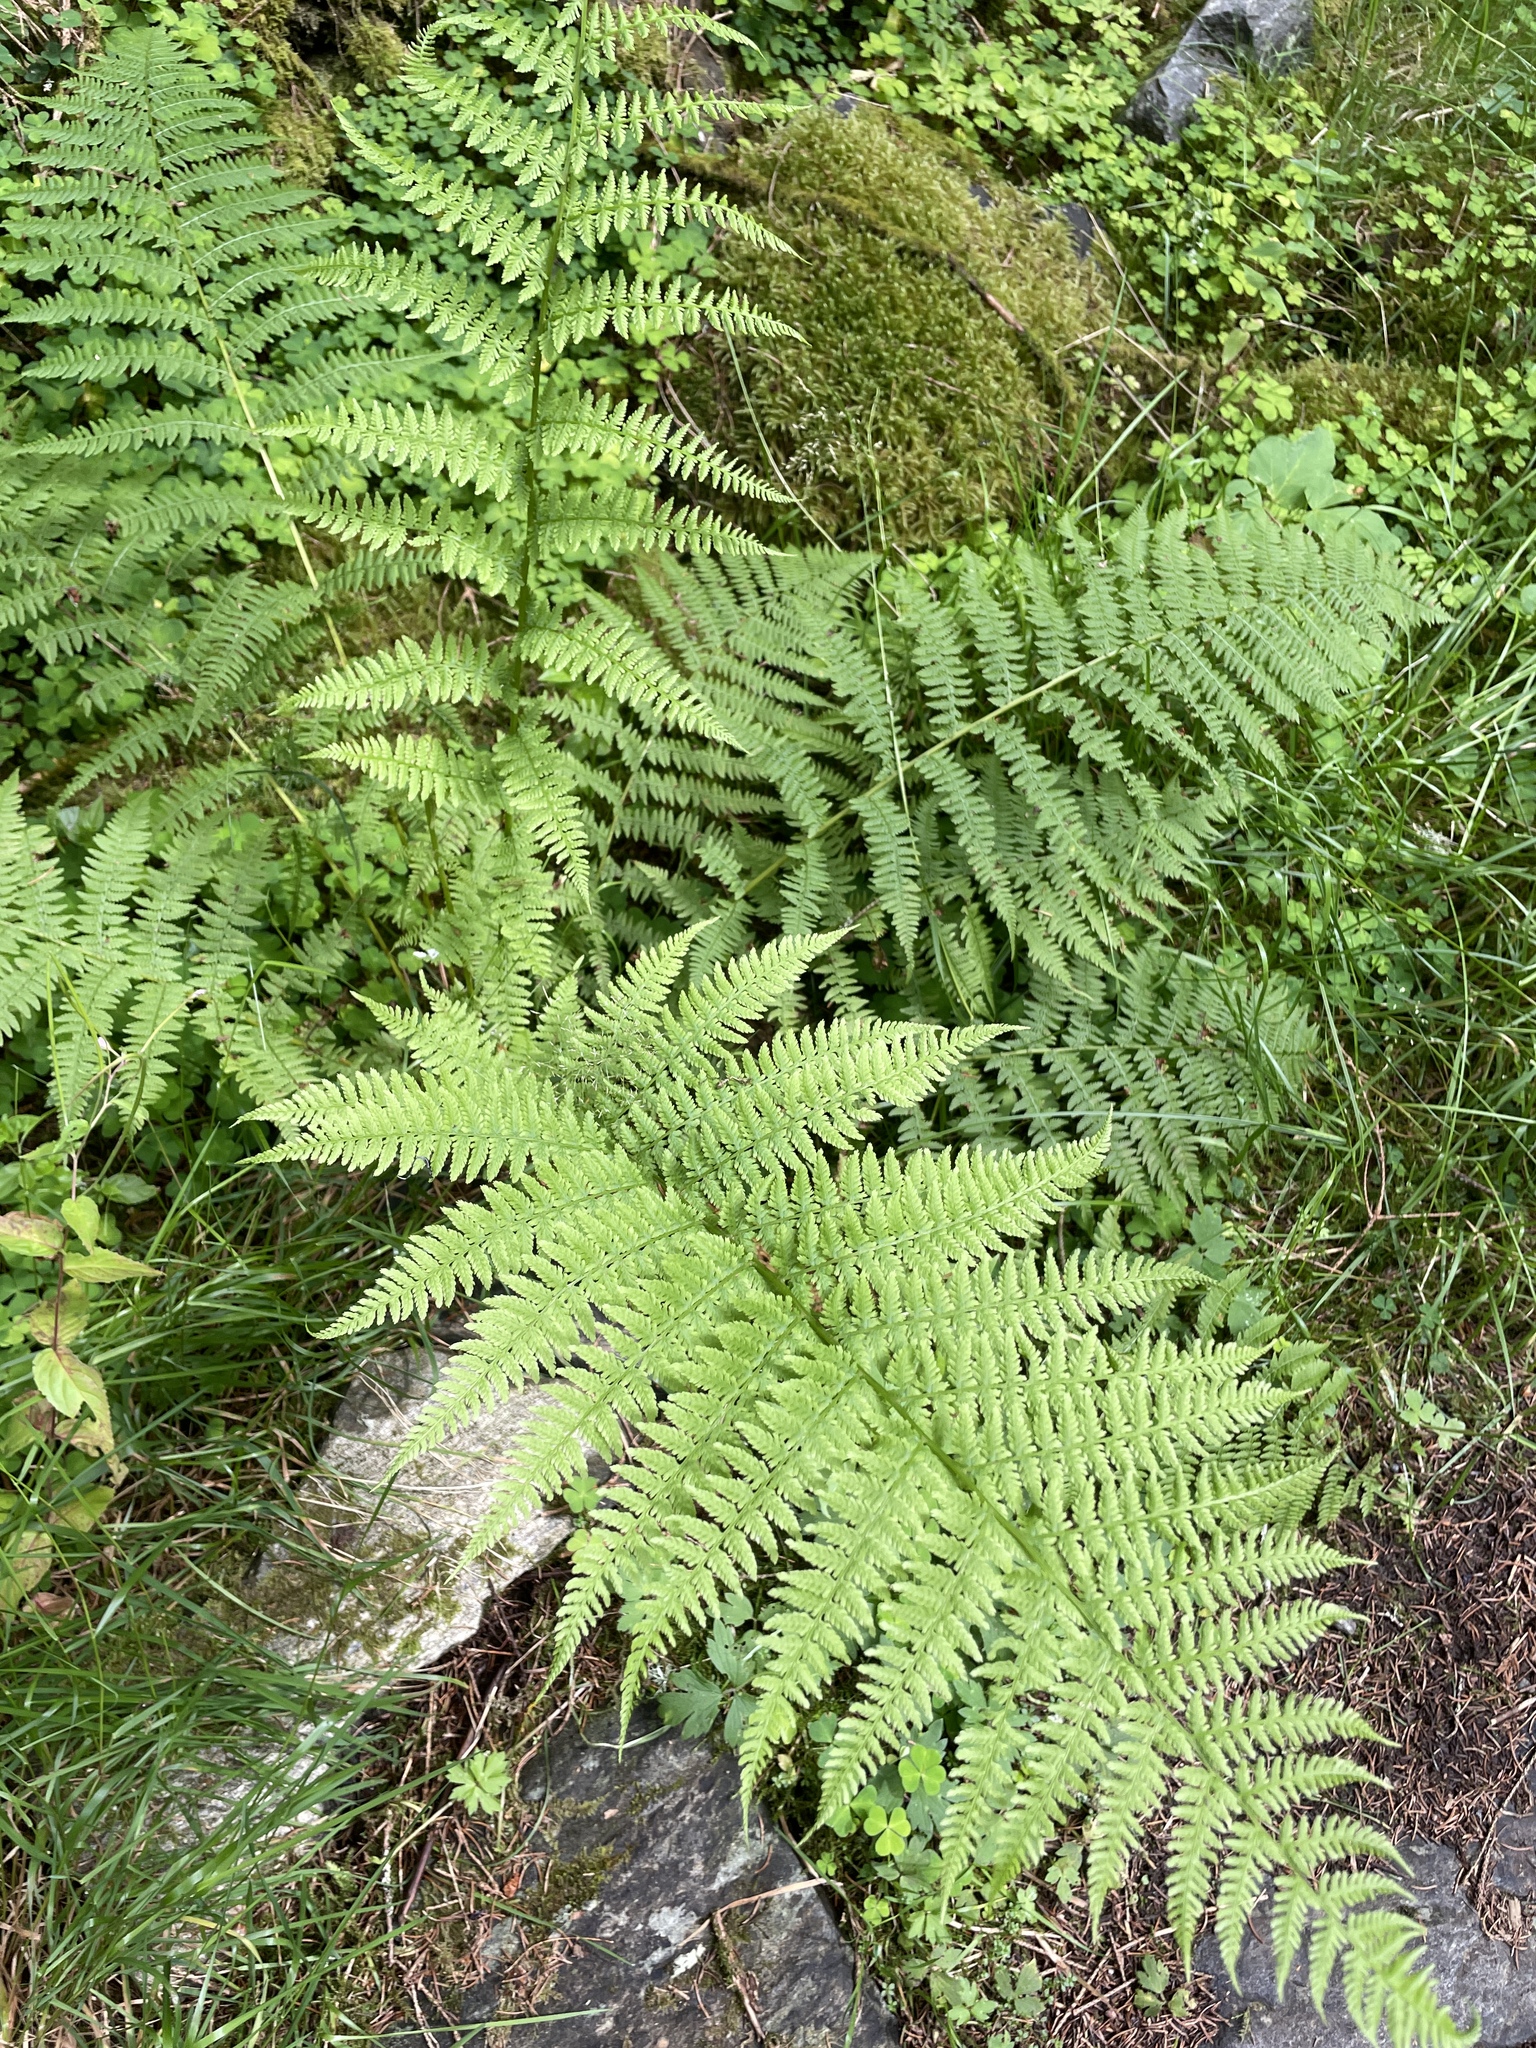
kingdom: Plantae
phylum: Tracheophyta
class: Polypodiopsida
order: Polypodiales
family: Athyriaceae
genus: Athyrium
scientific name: Athyrium filix-femina
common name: Lady fern
